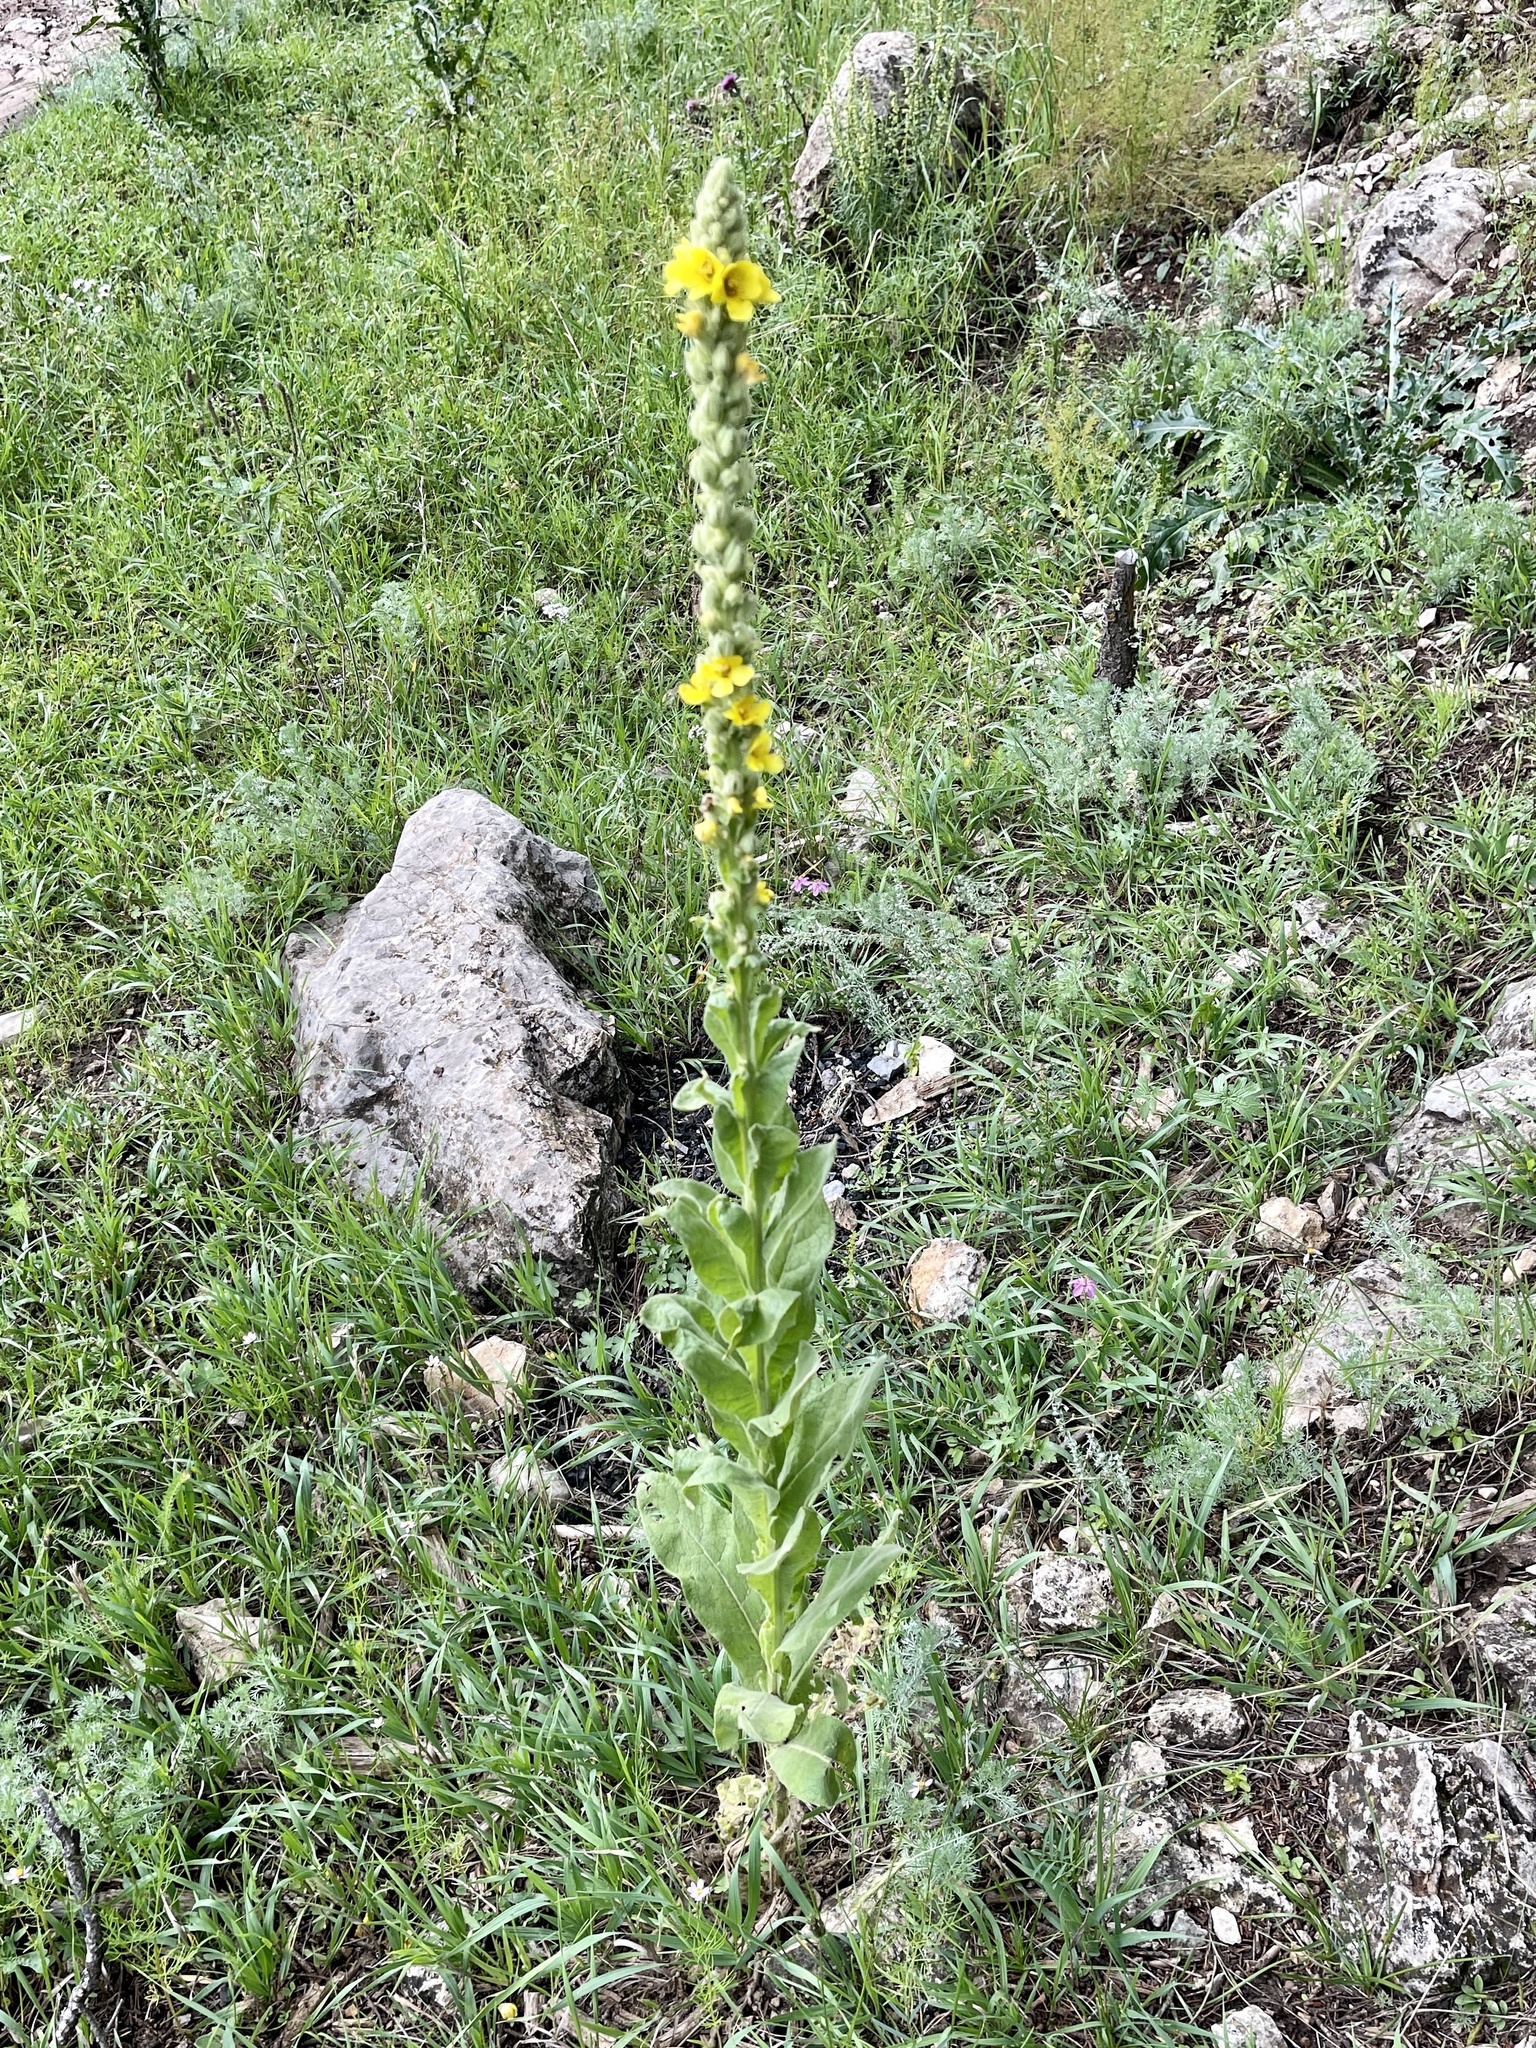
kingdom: Plantae
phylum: Tracheophyta
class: Magnoliopsida
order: Lamiales
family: Scrophulariaceae
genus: Verbascum
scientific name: Verbascum thapsus
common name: Common mullein
